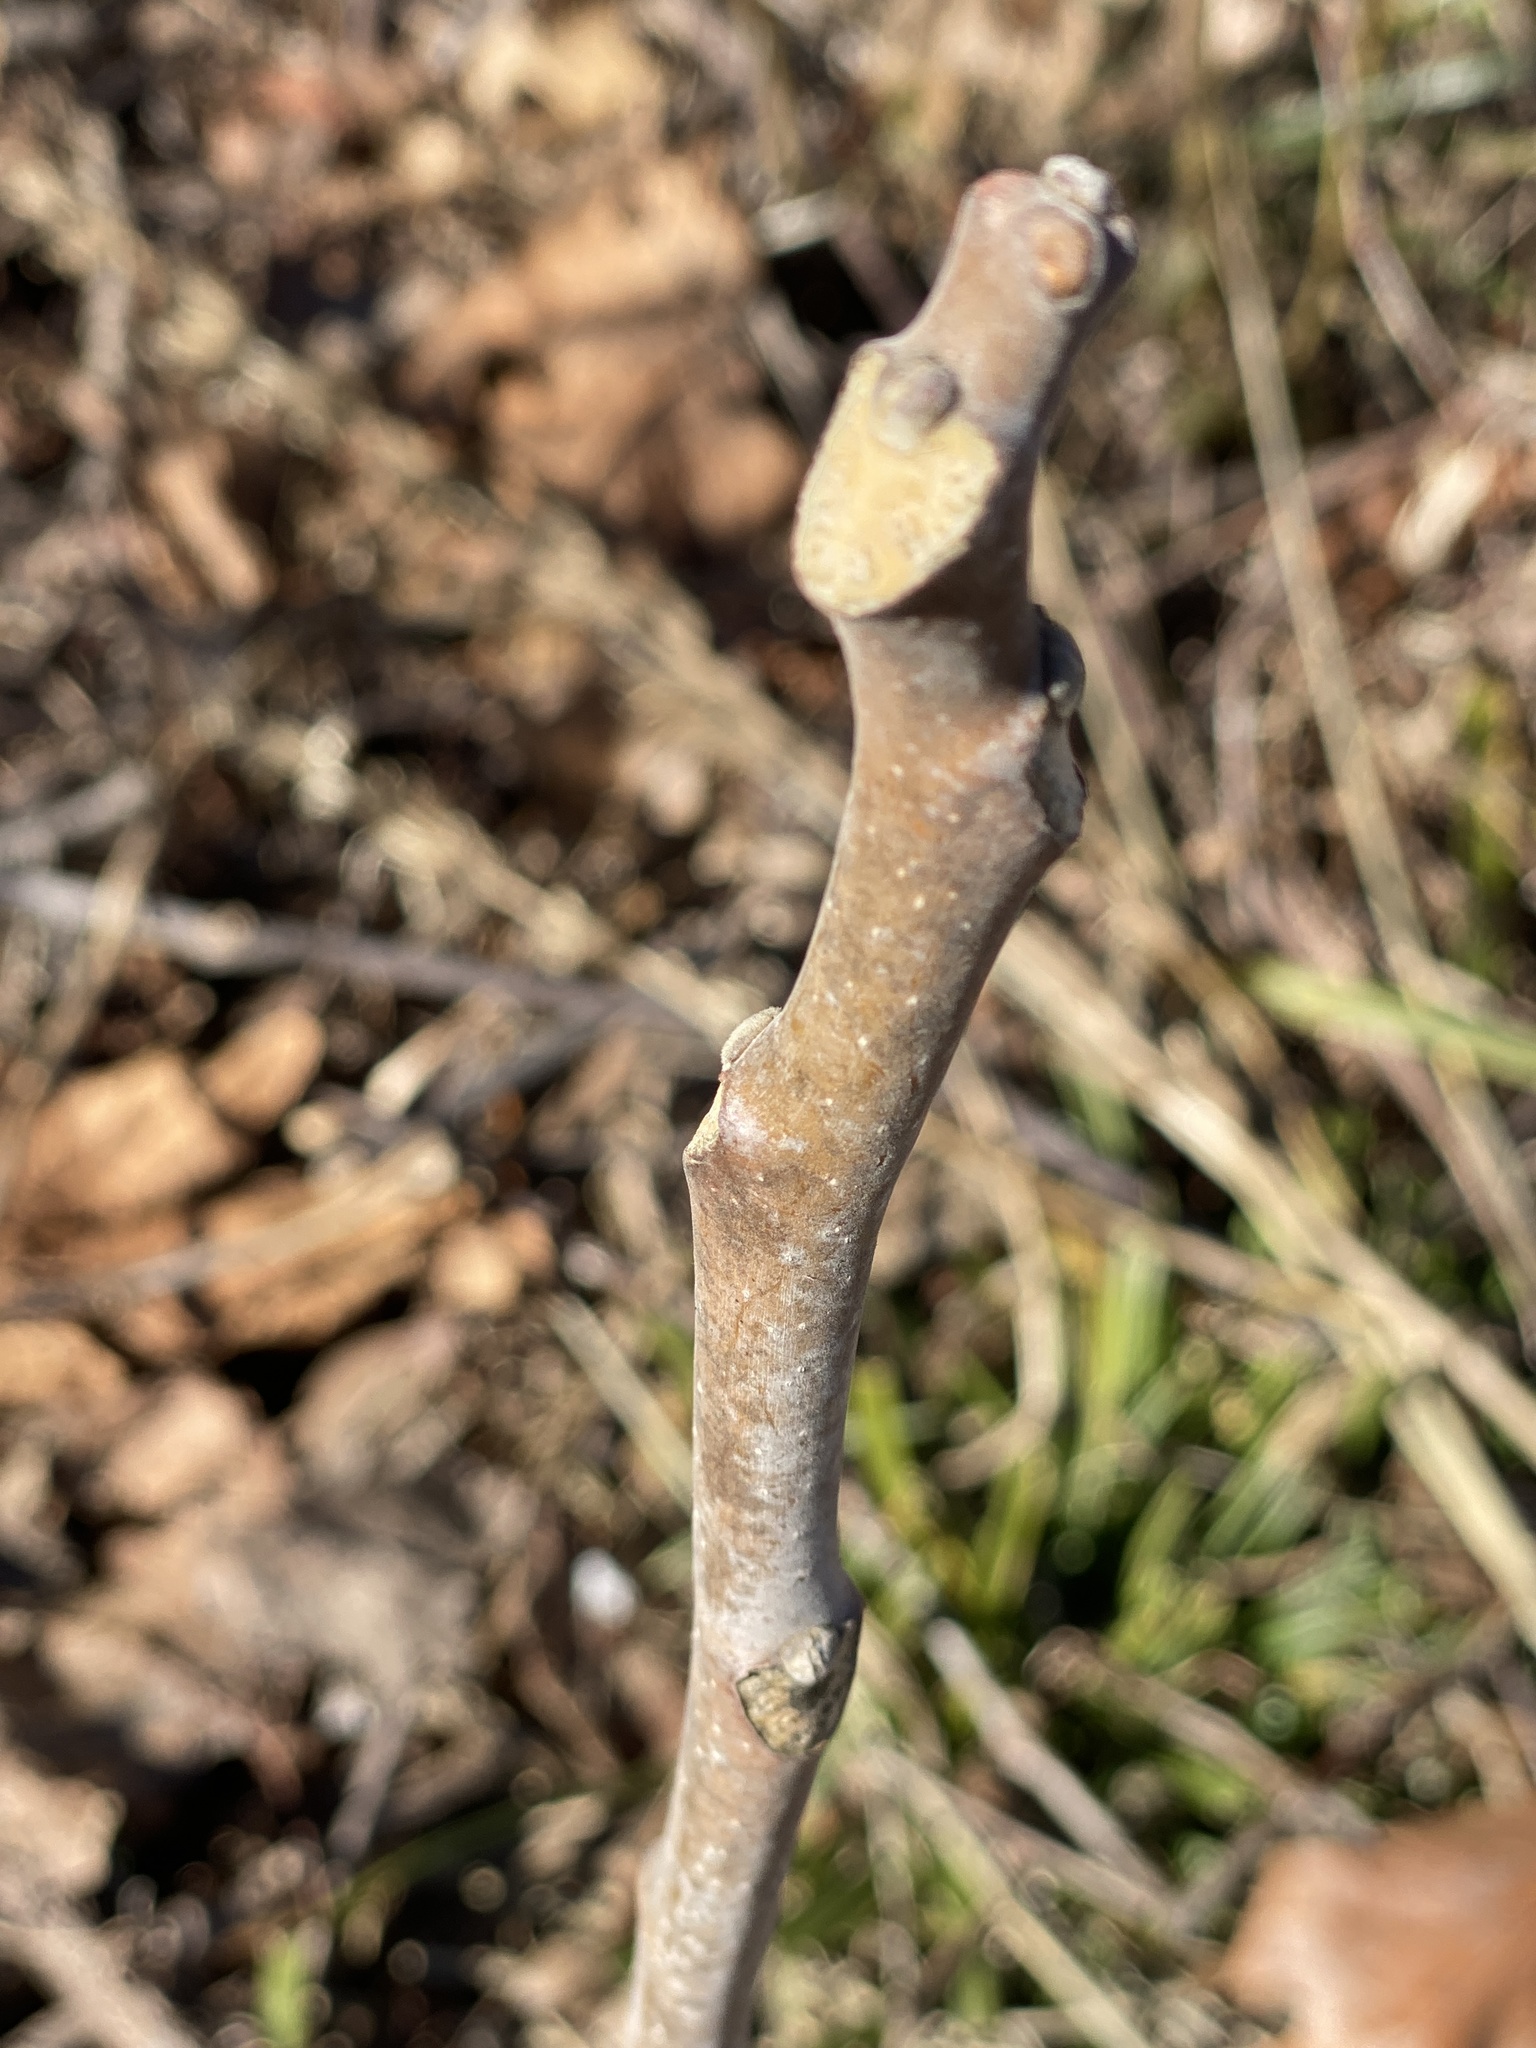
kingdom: Plantae
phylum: Tracheophyta
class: Magnoliopsida
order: Sapindales
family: Simaroubaceae
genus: Ailanthus
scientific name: Ailanthus altissima
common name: Tree-of-heaven
